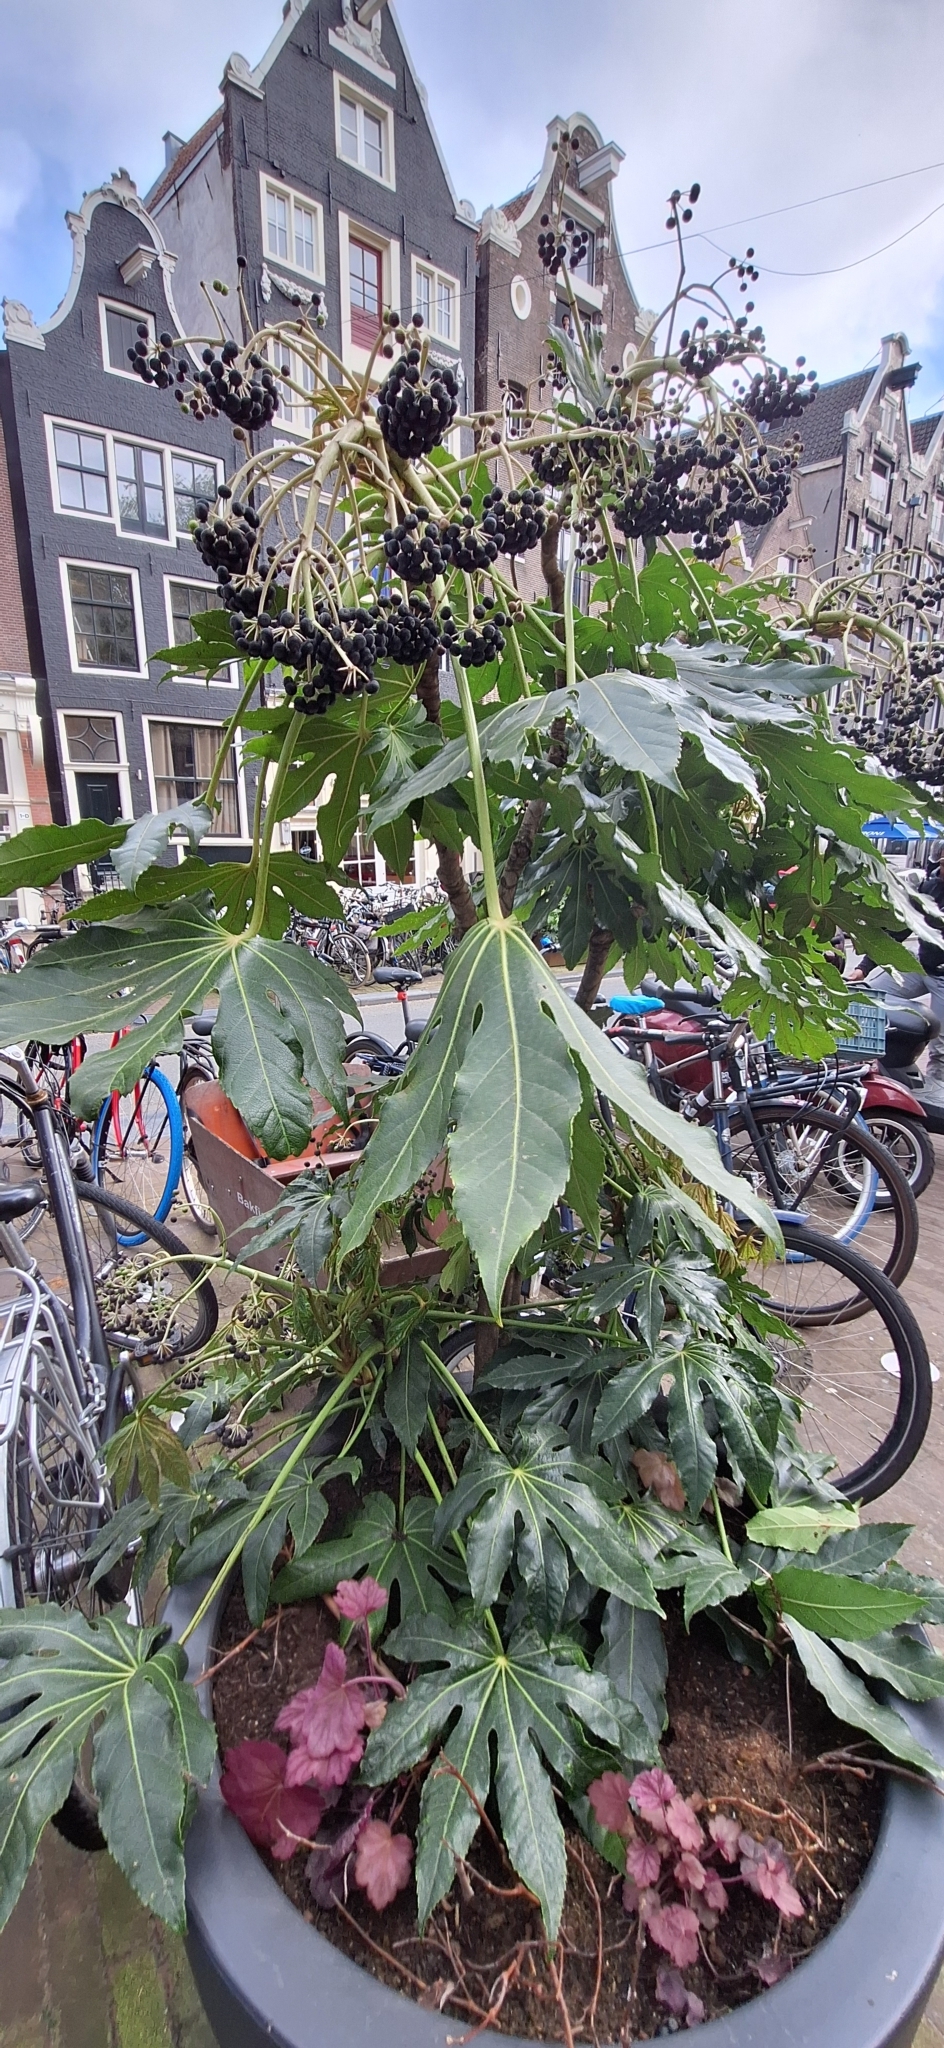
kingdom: Plantae
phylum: Tracheophyta
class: Magnoliopsida
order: Apiales
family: Araliaceae
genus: Fatsia
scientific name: Fatsia japonica
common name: Fatsia
